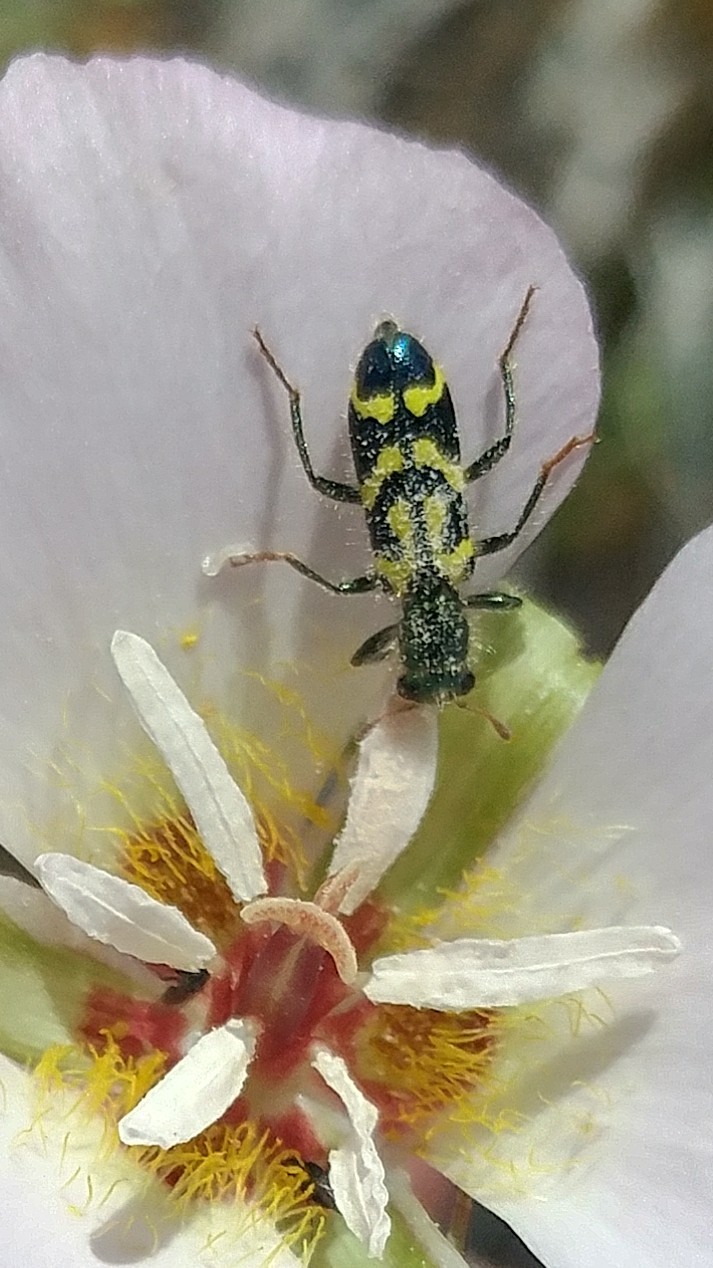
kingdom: Animalia
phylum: Arthropoda
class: Insecta
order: Coleoptera
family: Cleridae
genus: Trichodes
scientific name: Trichodes ornatus
